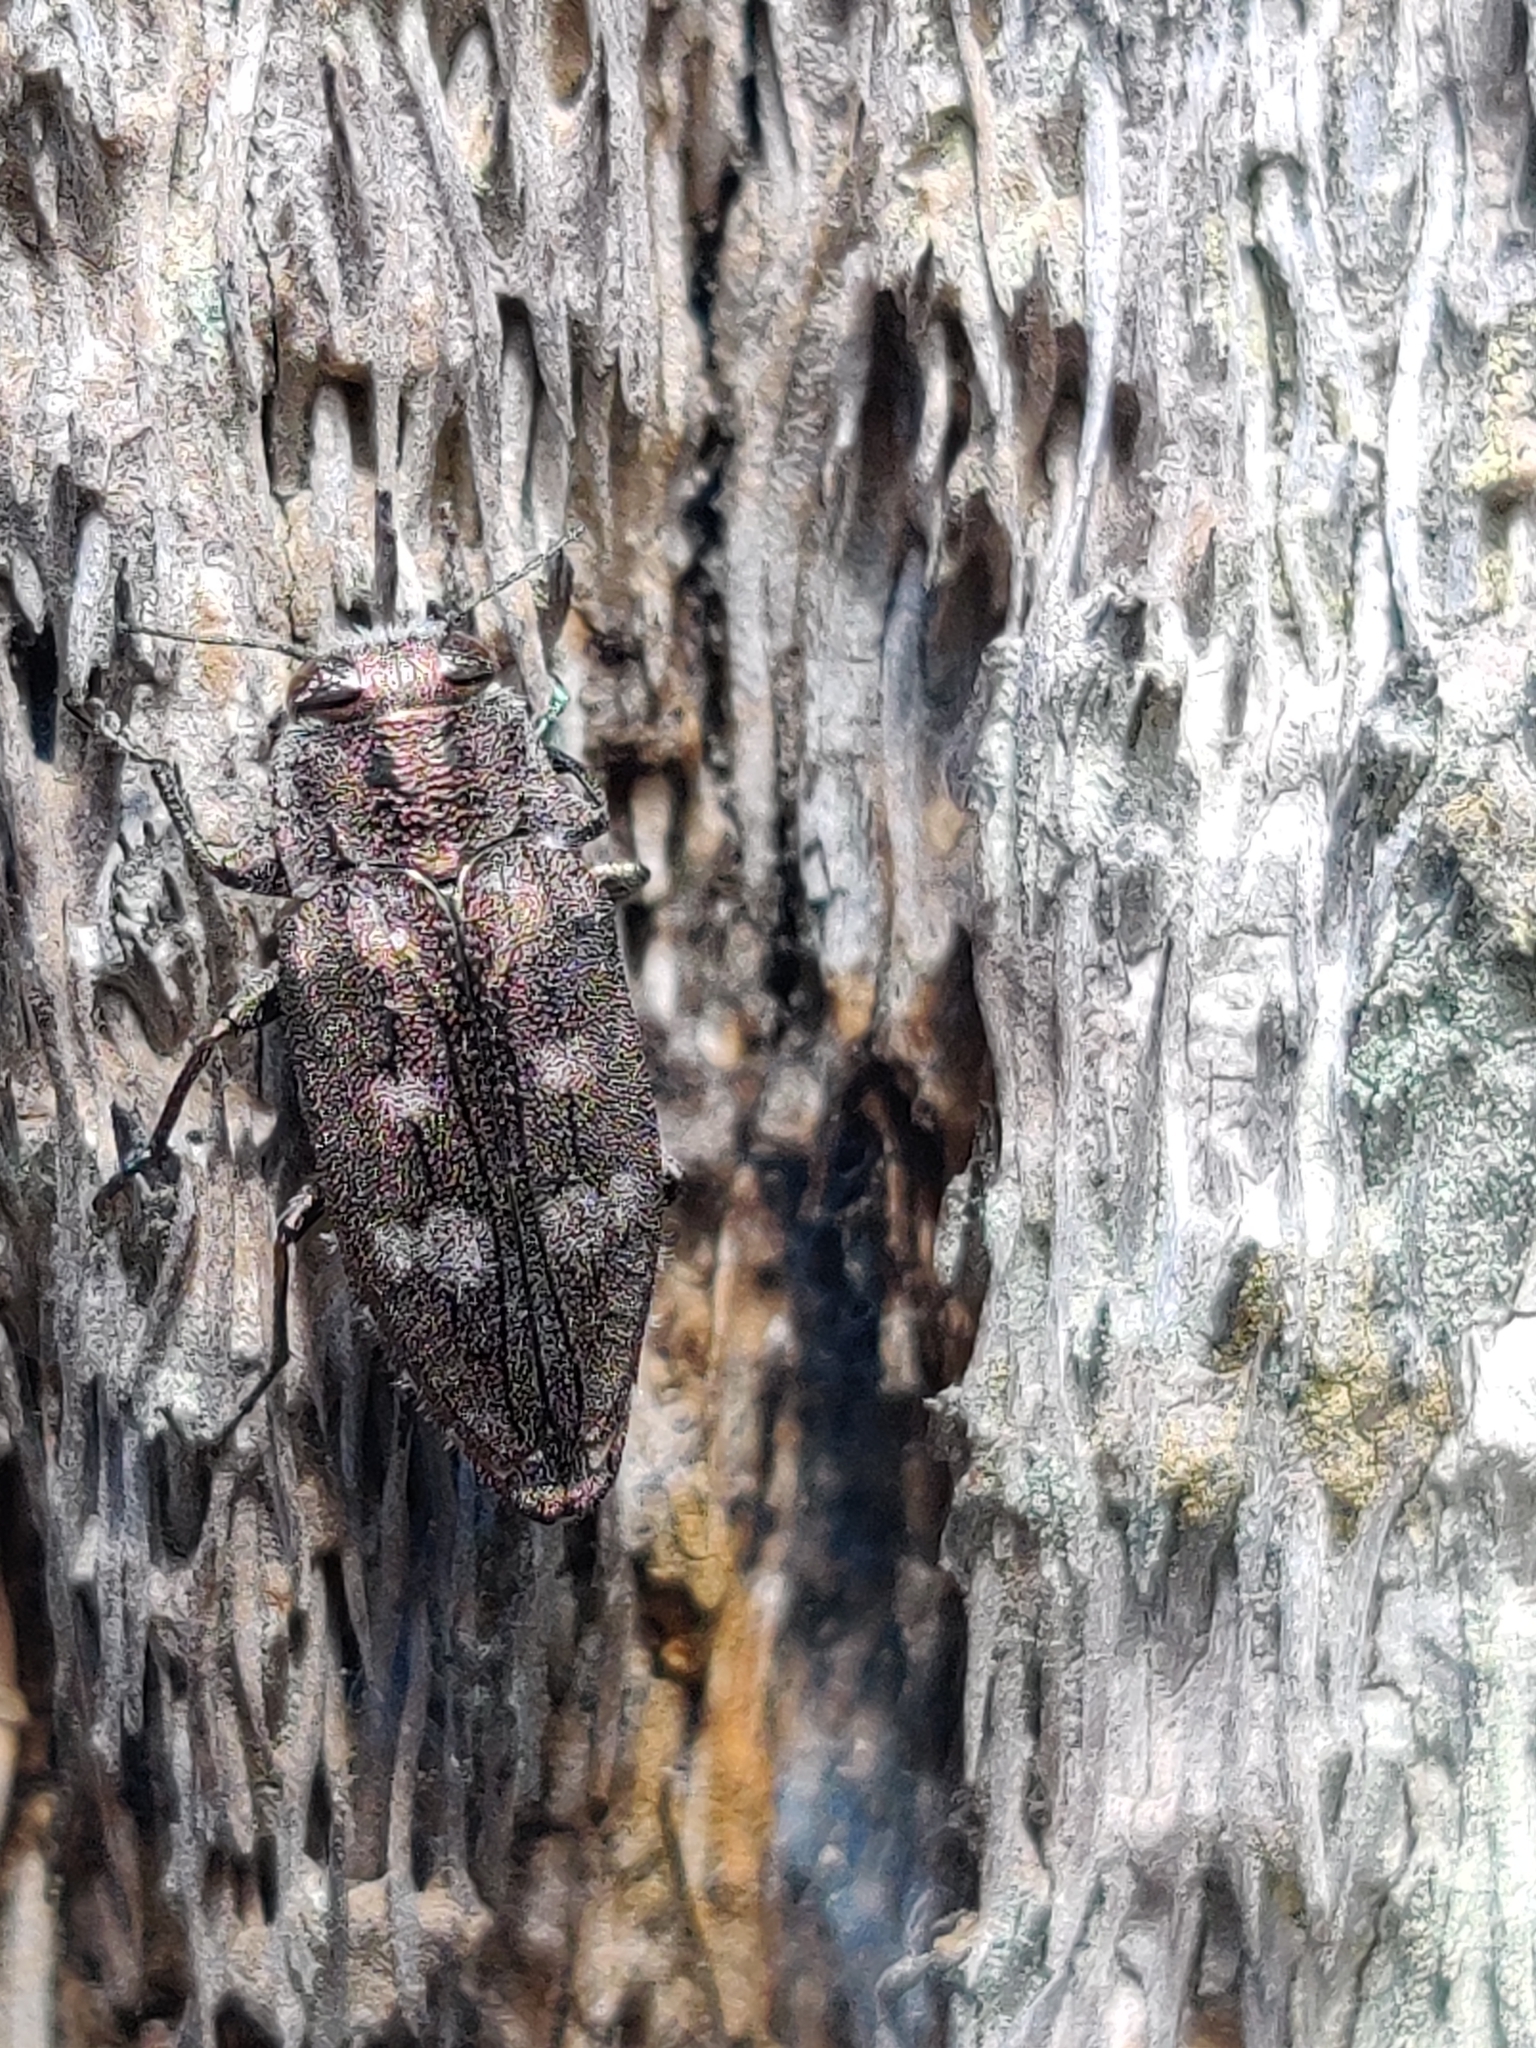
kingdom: Animalia
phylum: Arthropoda
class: Insecta
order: Coleoptera
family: Buprestidae
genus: Chrysobothris
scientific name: Chrysobothris cribraria
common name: Sifting metallic wood-borer
